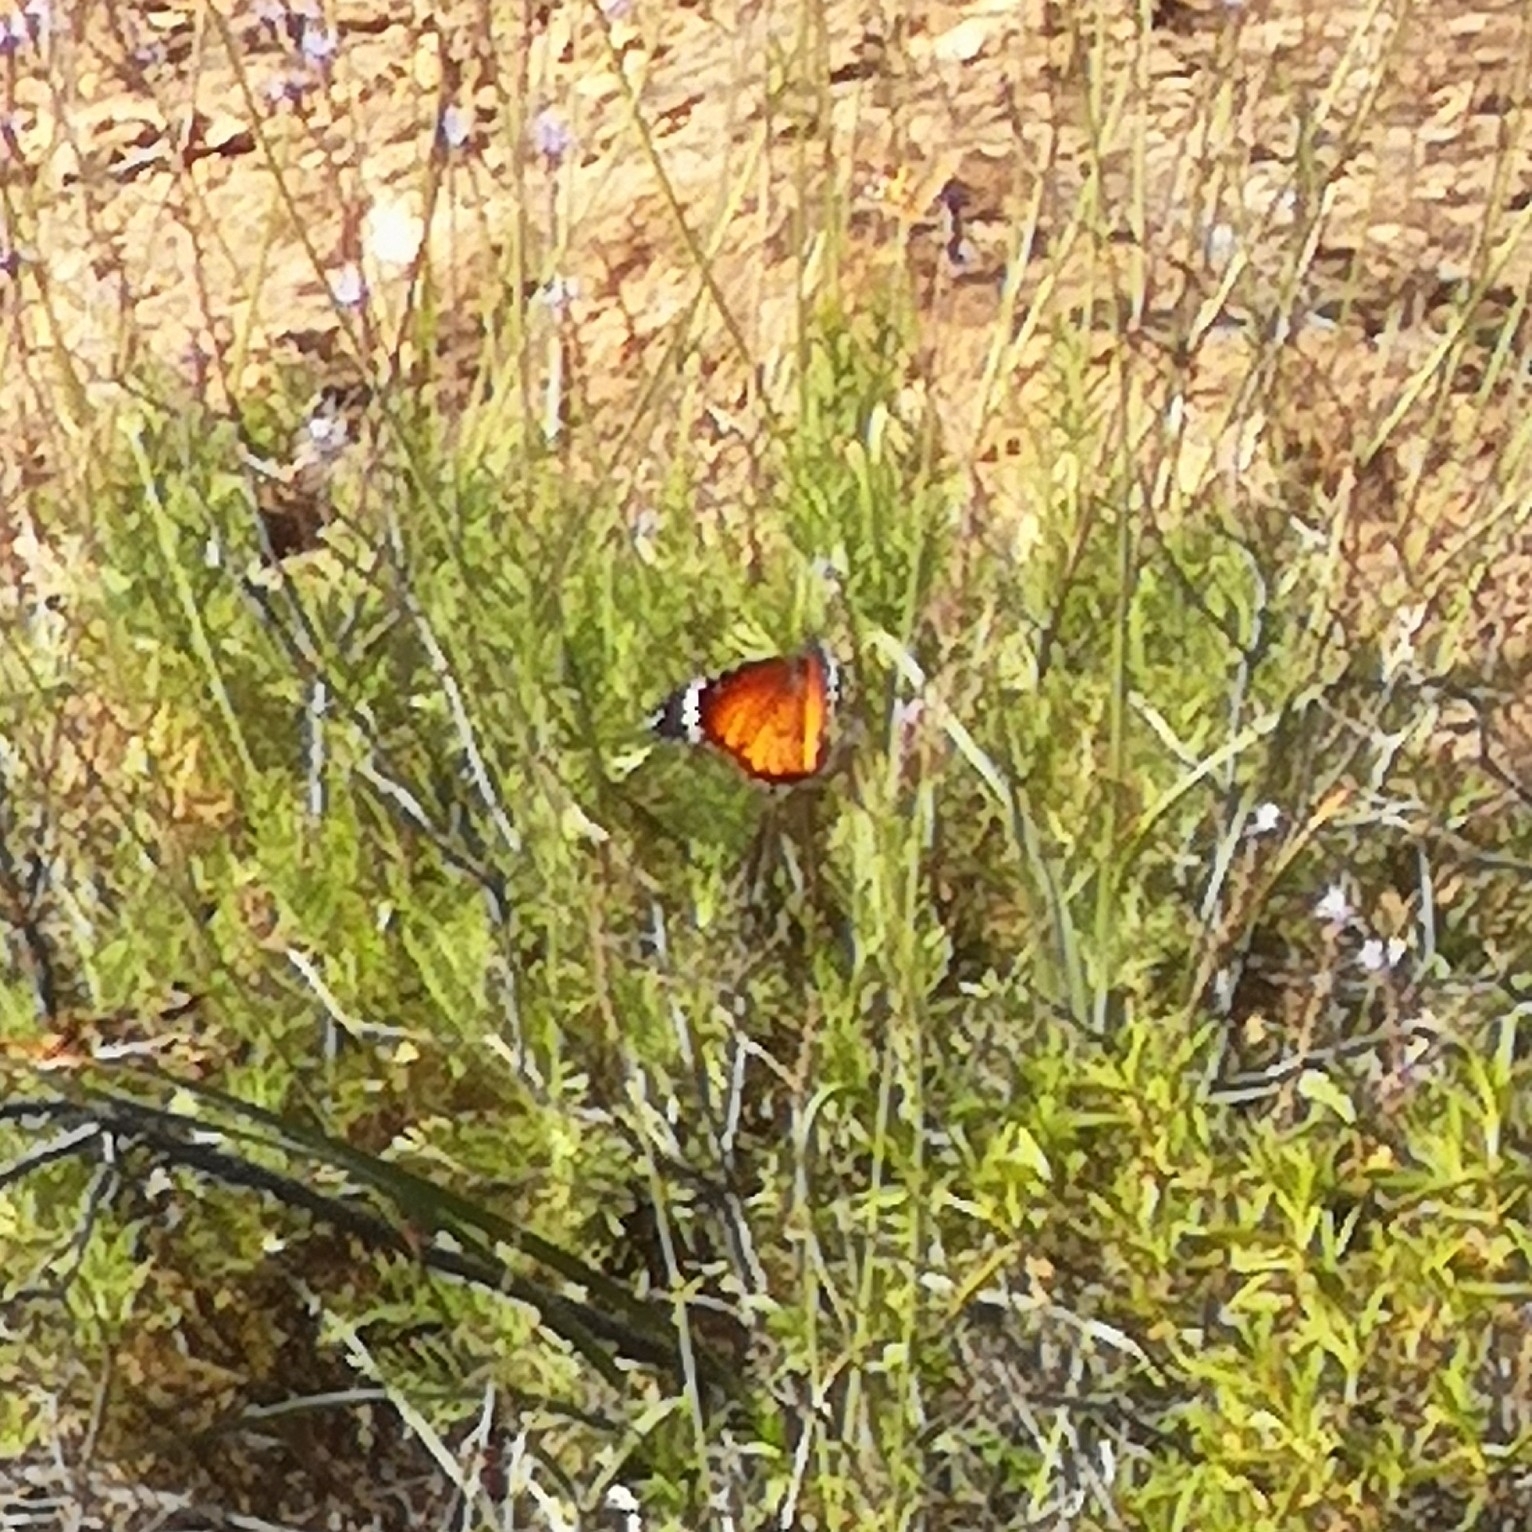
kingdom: Animalia
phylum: Arthropoda
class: Insecta
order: Lepidoptera
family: Nymphalidae
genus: Danaus
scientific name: Danaus chrysippus
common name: Plain tiger
